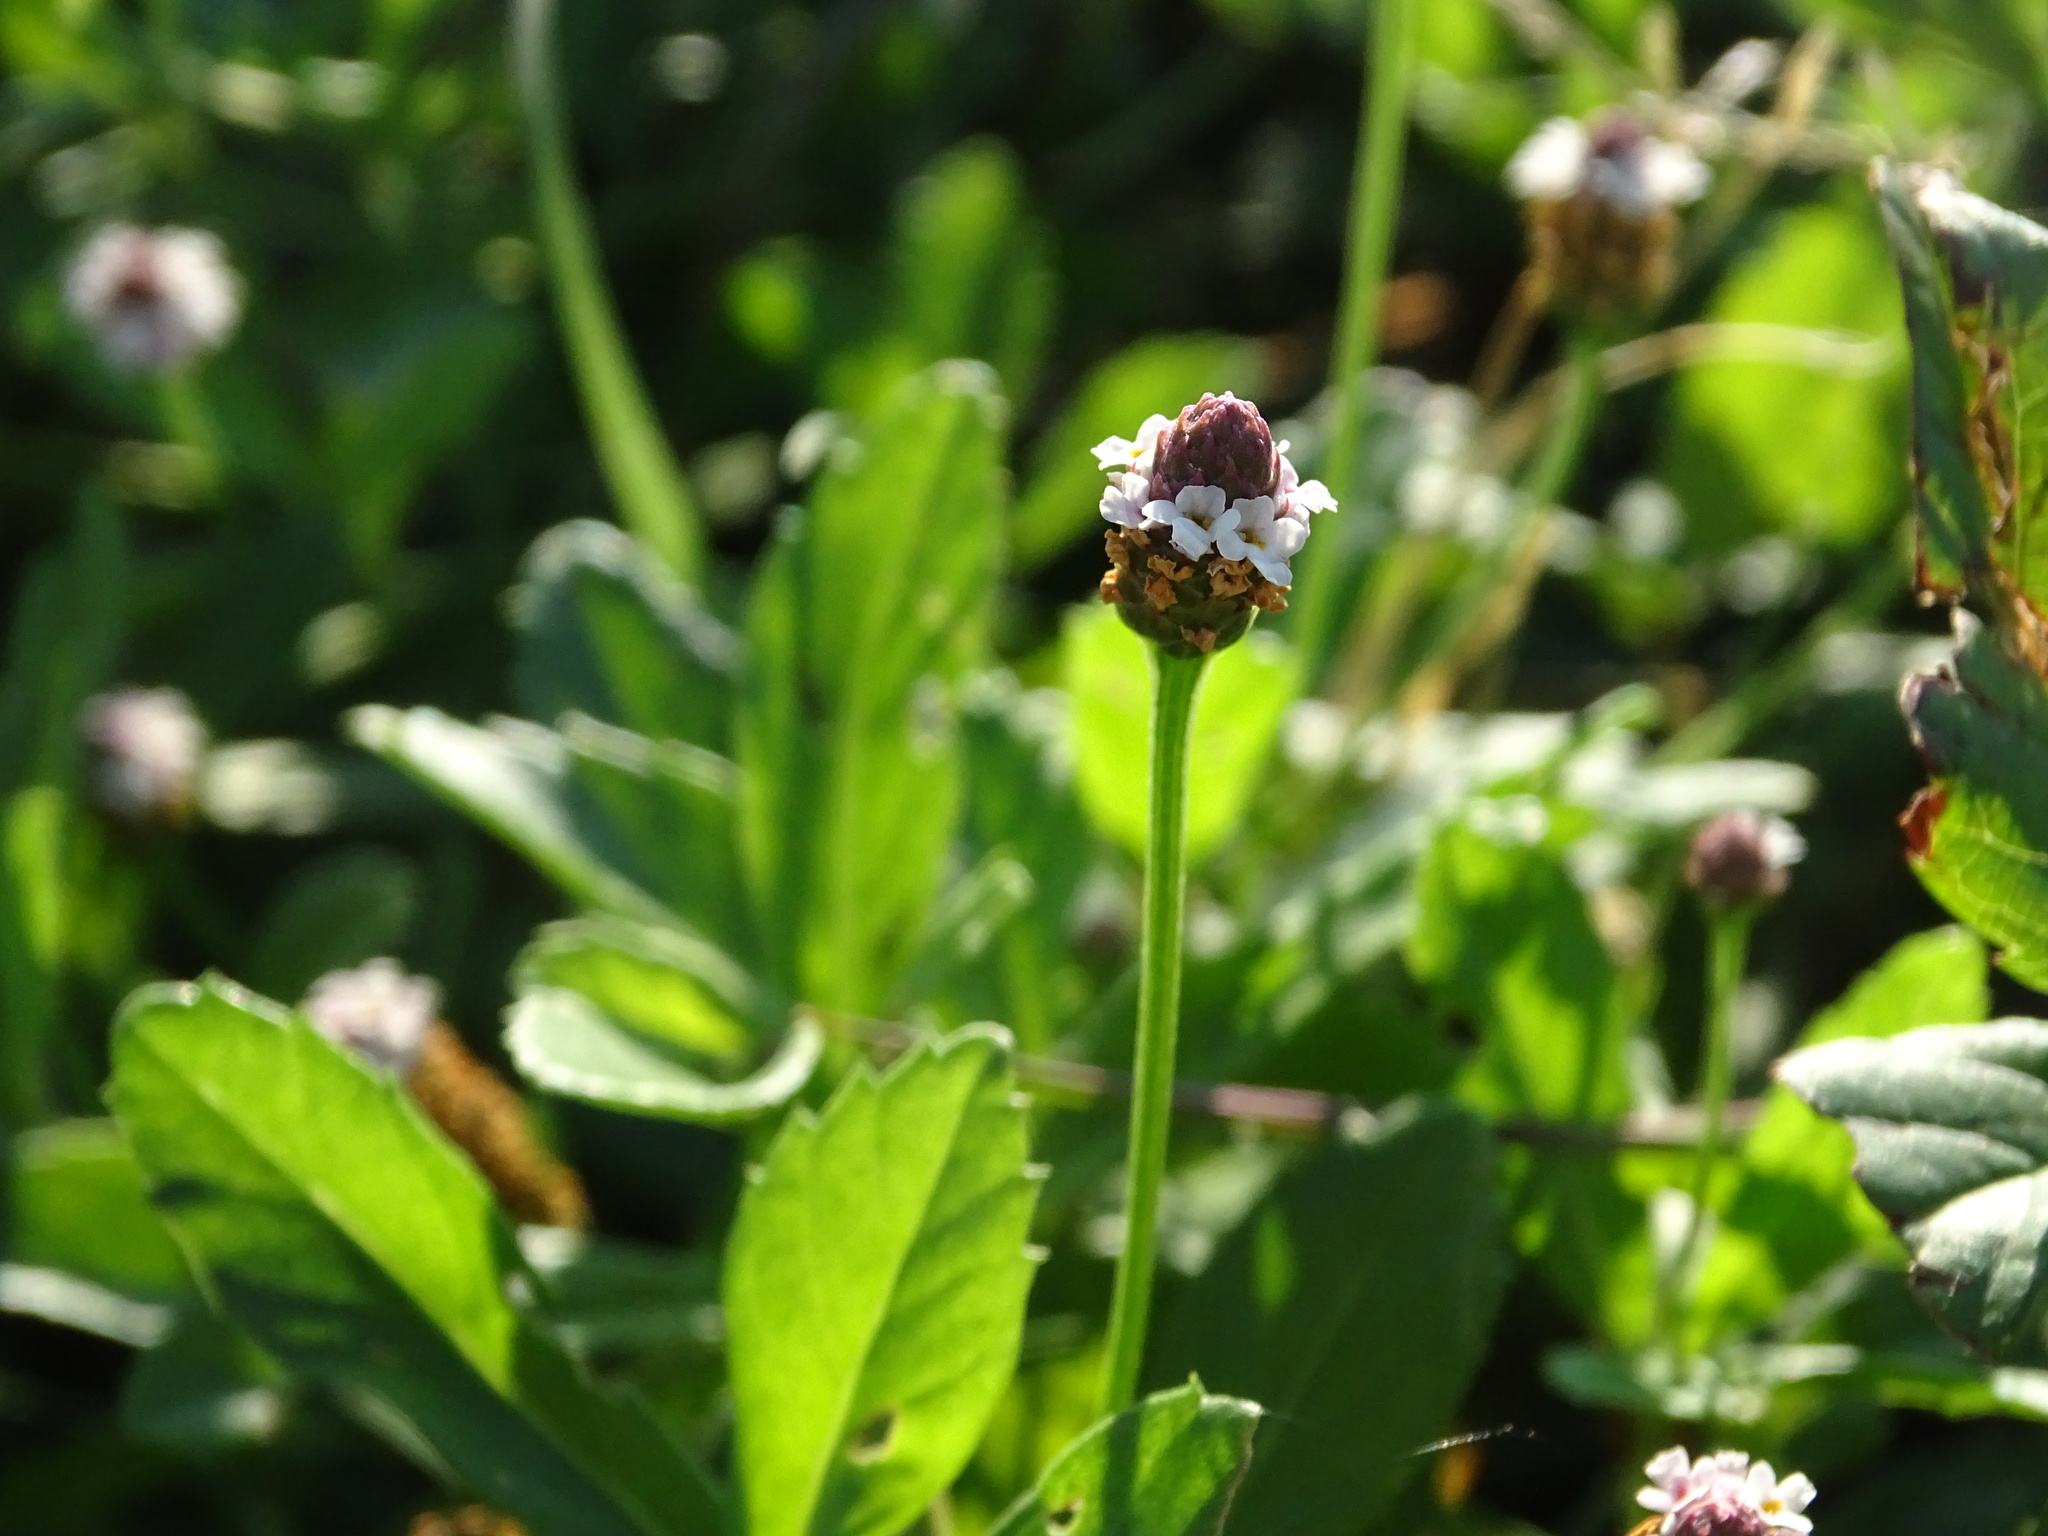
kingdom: Plantae
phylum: Tracheophyta
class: Magnoliopsida
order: Lamiales
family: Verbenaceae
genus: Phyla
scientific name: Phyla nodiflora
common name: Frogfruit
